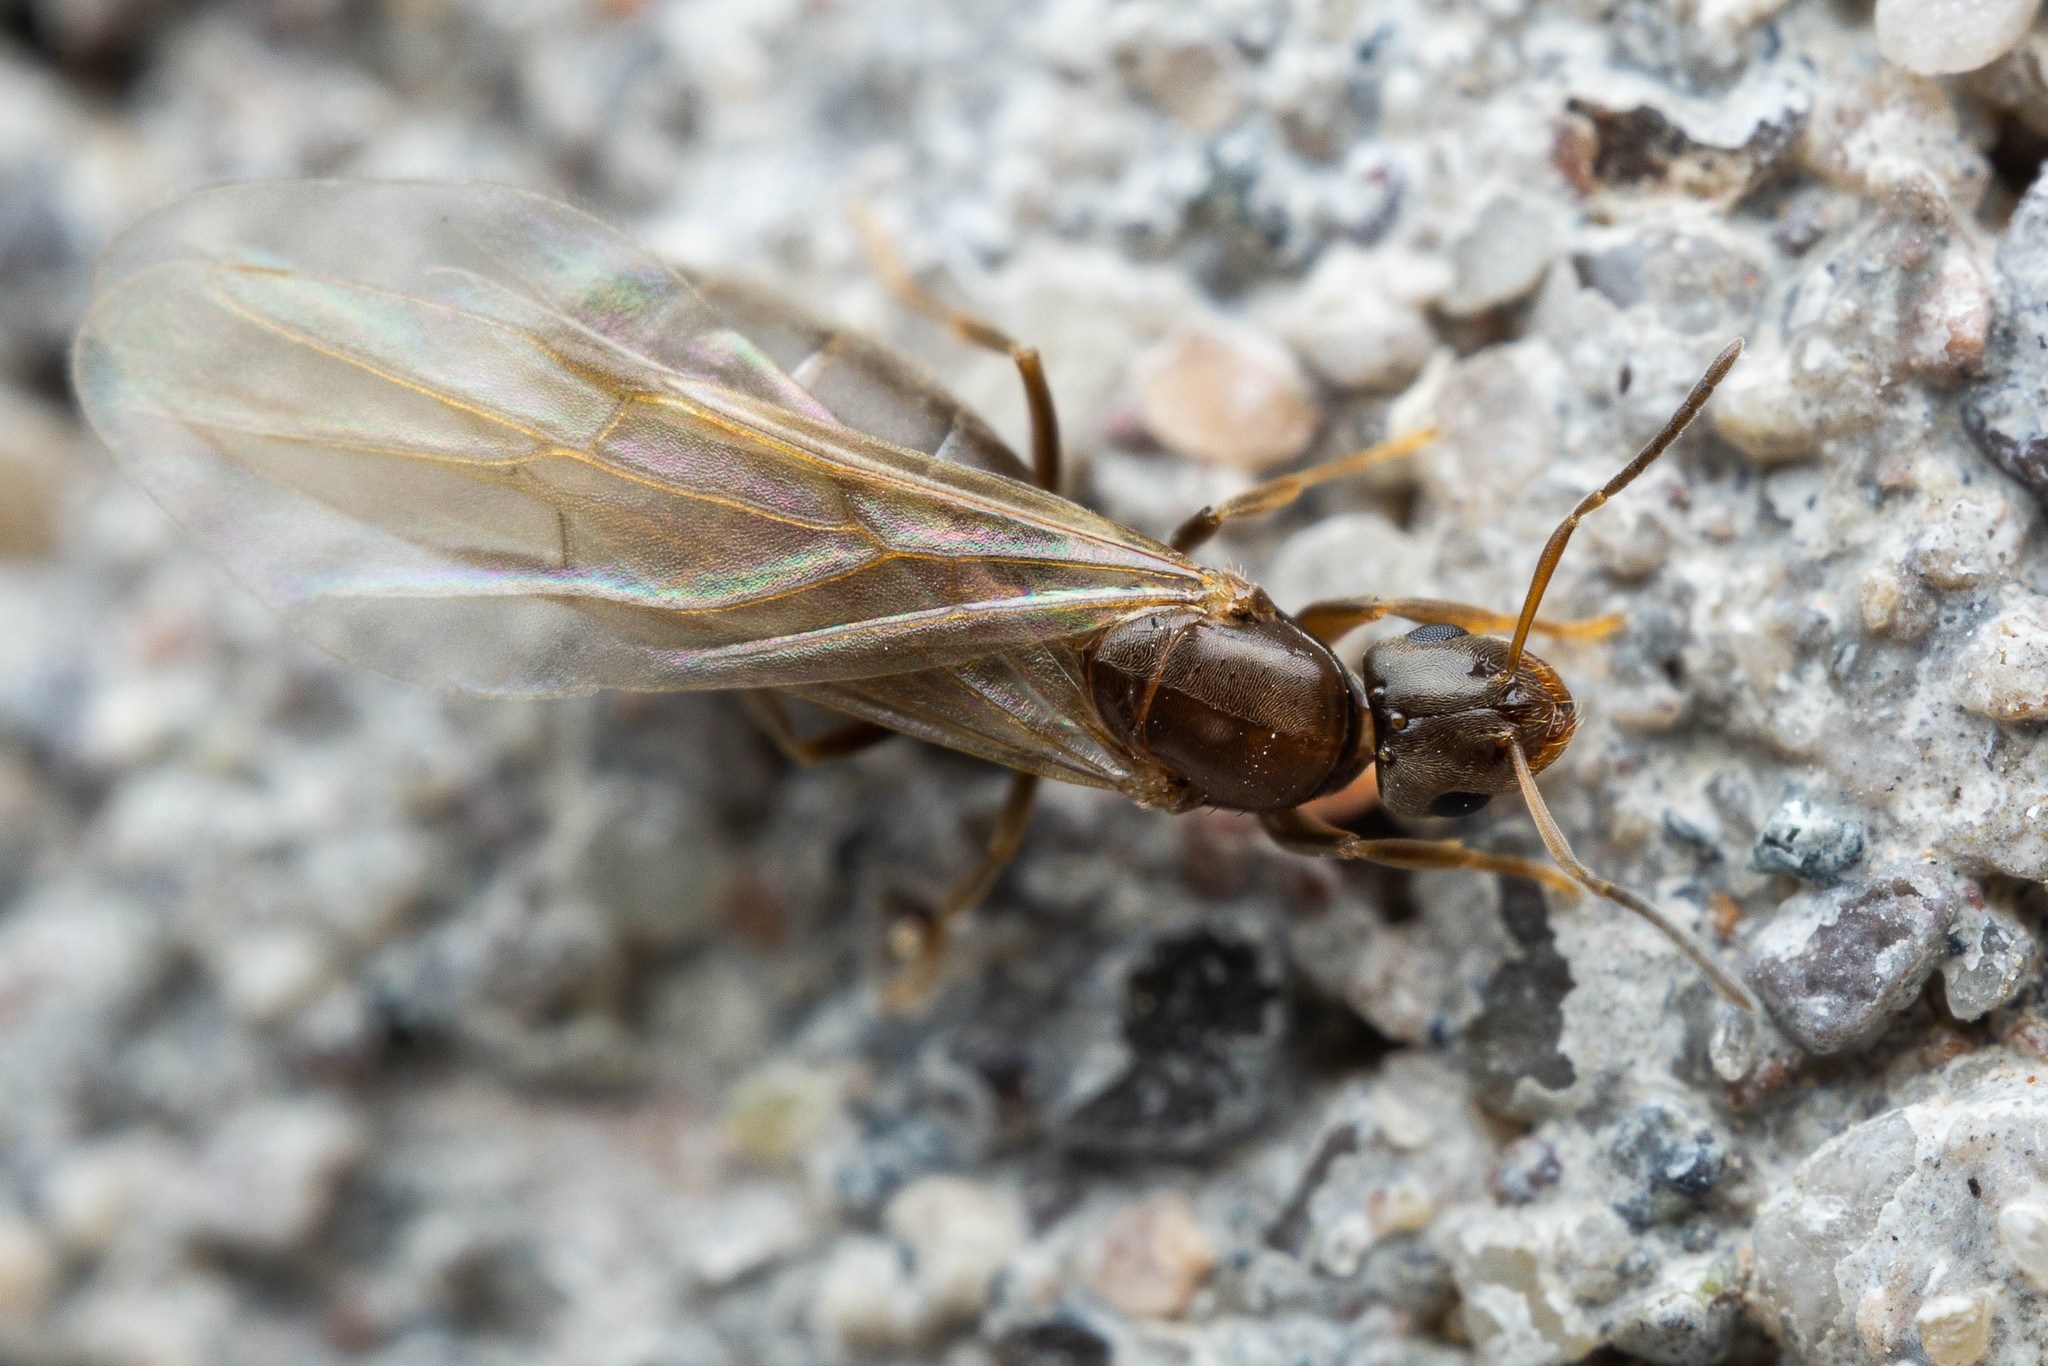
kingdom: Animalia
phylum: Arthropoda
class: Insecta
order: Hymenoptera
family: Formicidae
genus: Brachymyrmex
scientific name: Brachymyrmex patagonicus
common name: Dark rover ant
